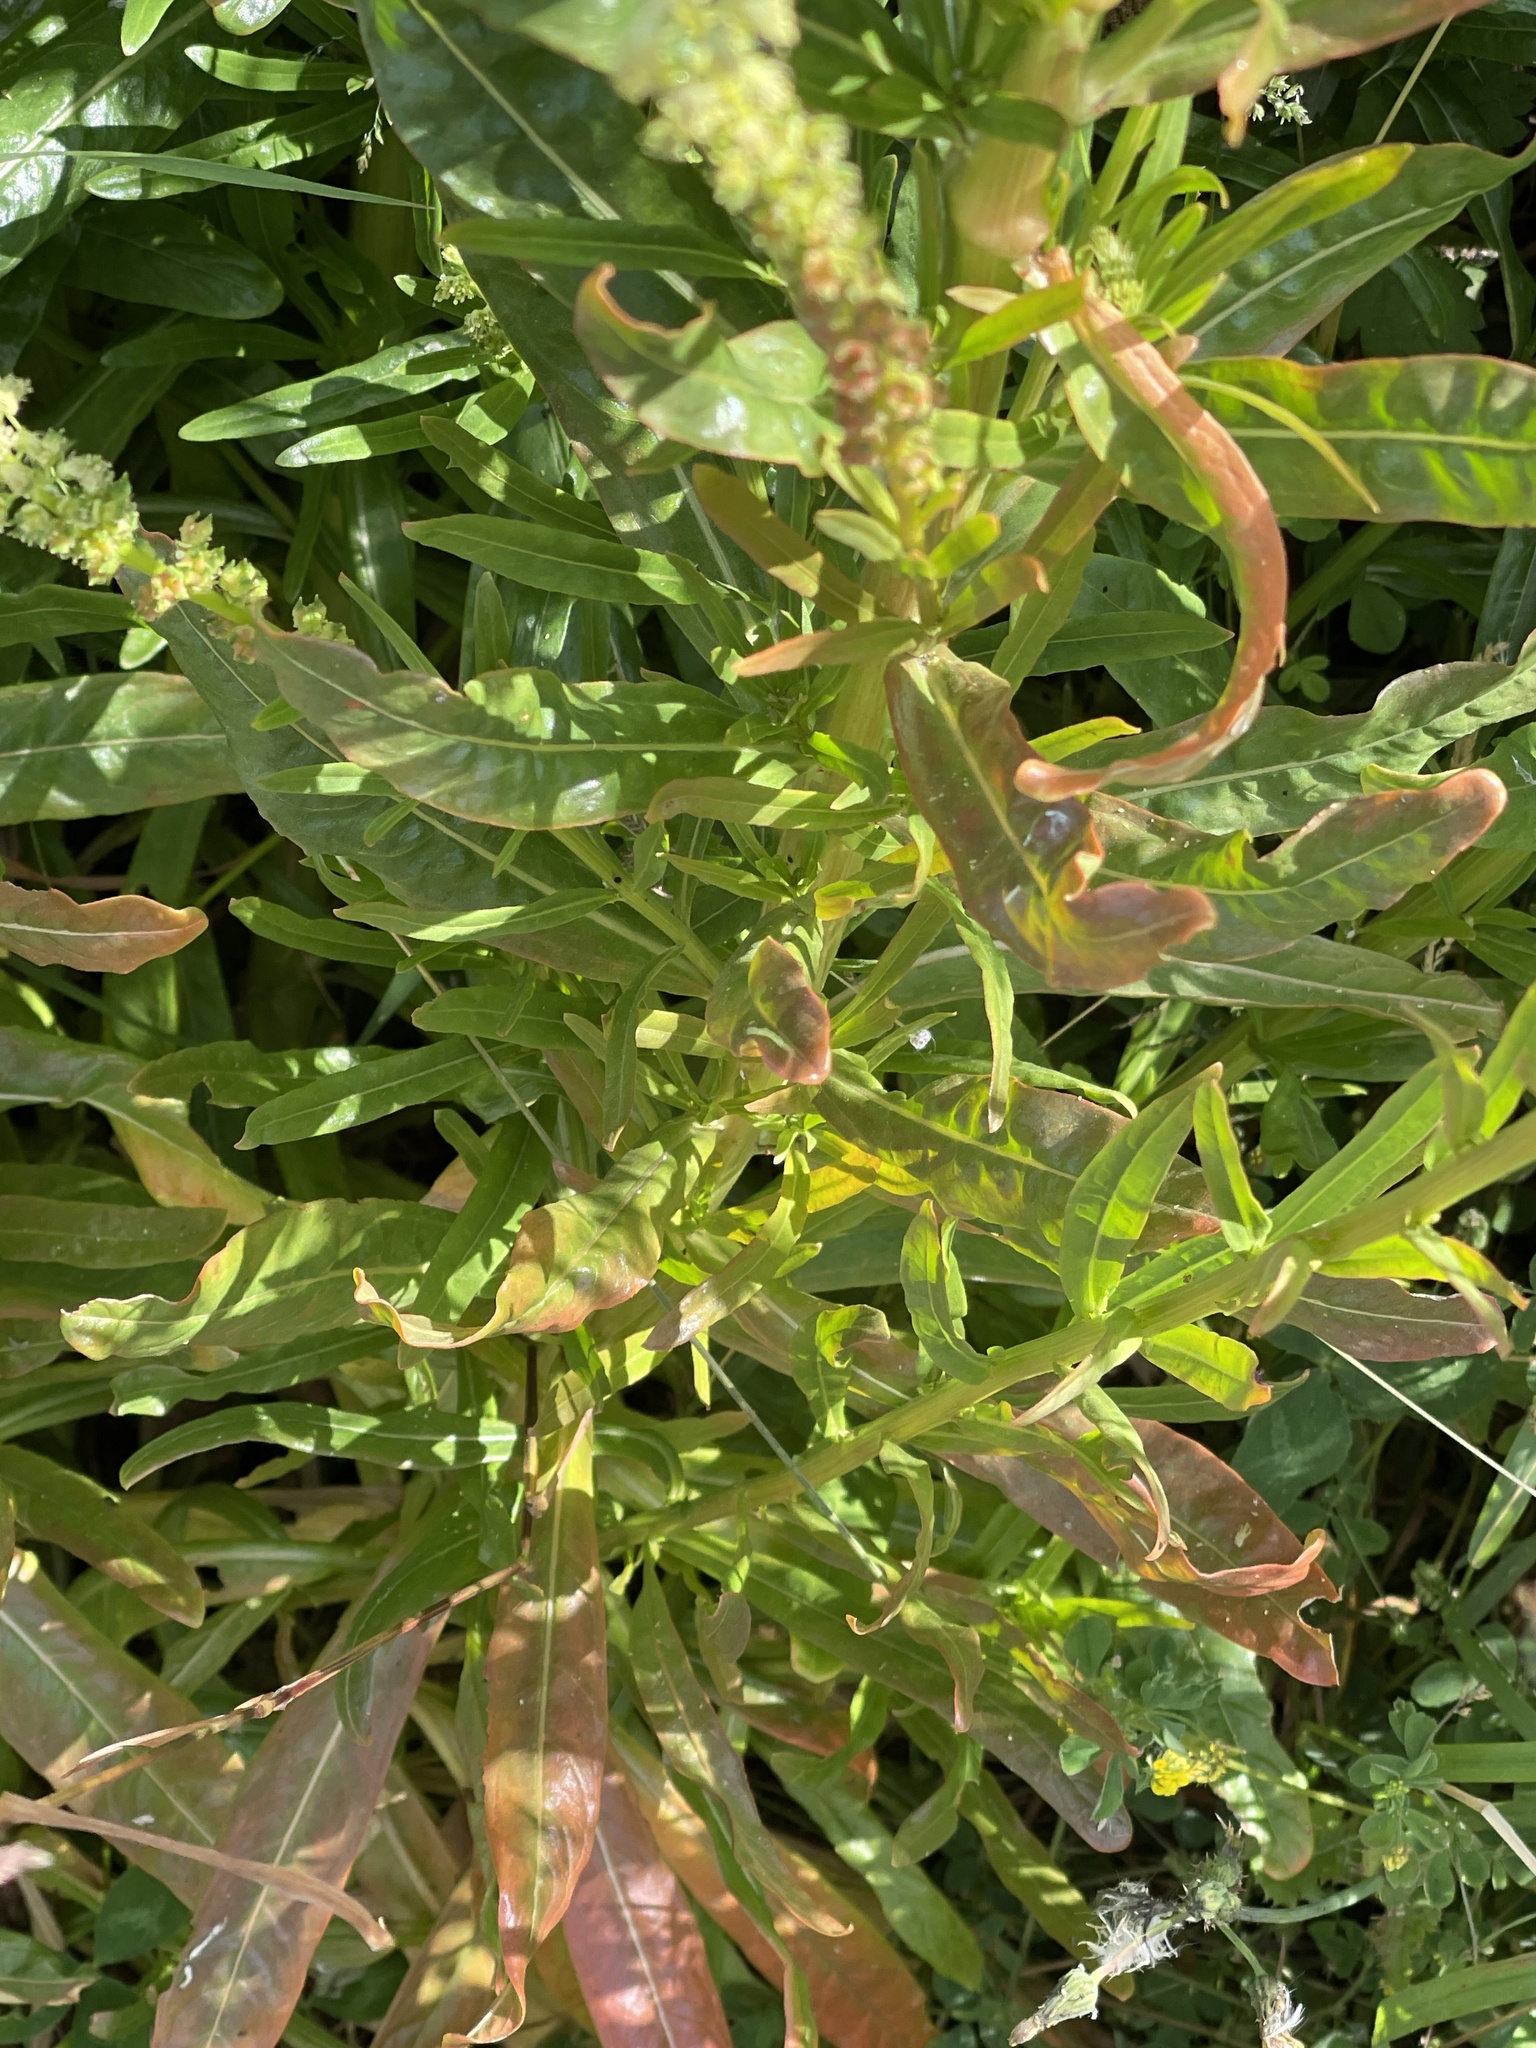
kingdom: Plantae
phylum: Tracheophyta
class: Magnoliopsida
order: Brassicales
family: Resedaceae
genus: Reseda
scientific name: Reseda luteola
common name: Weld
